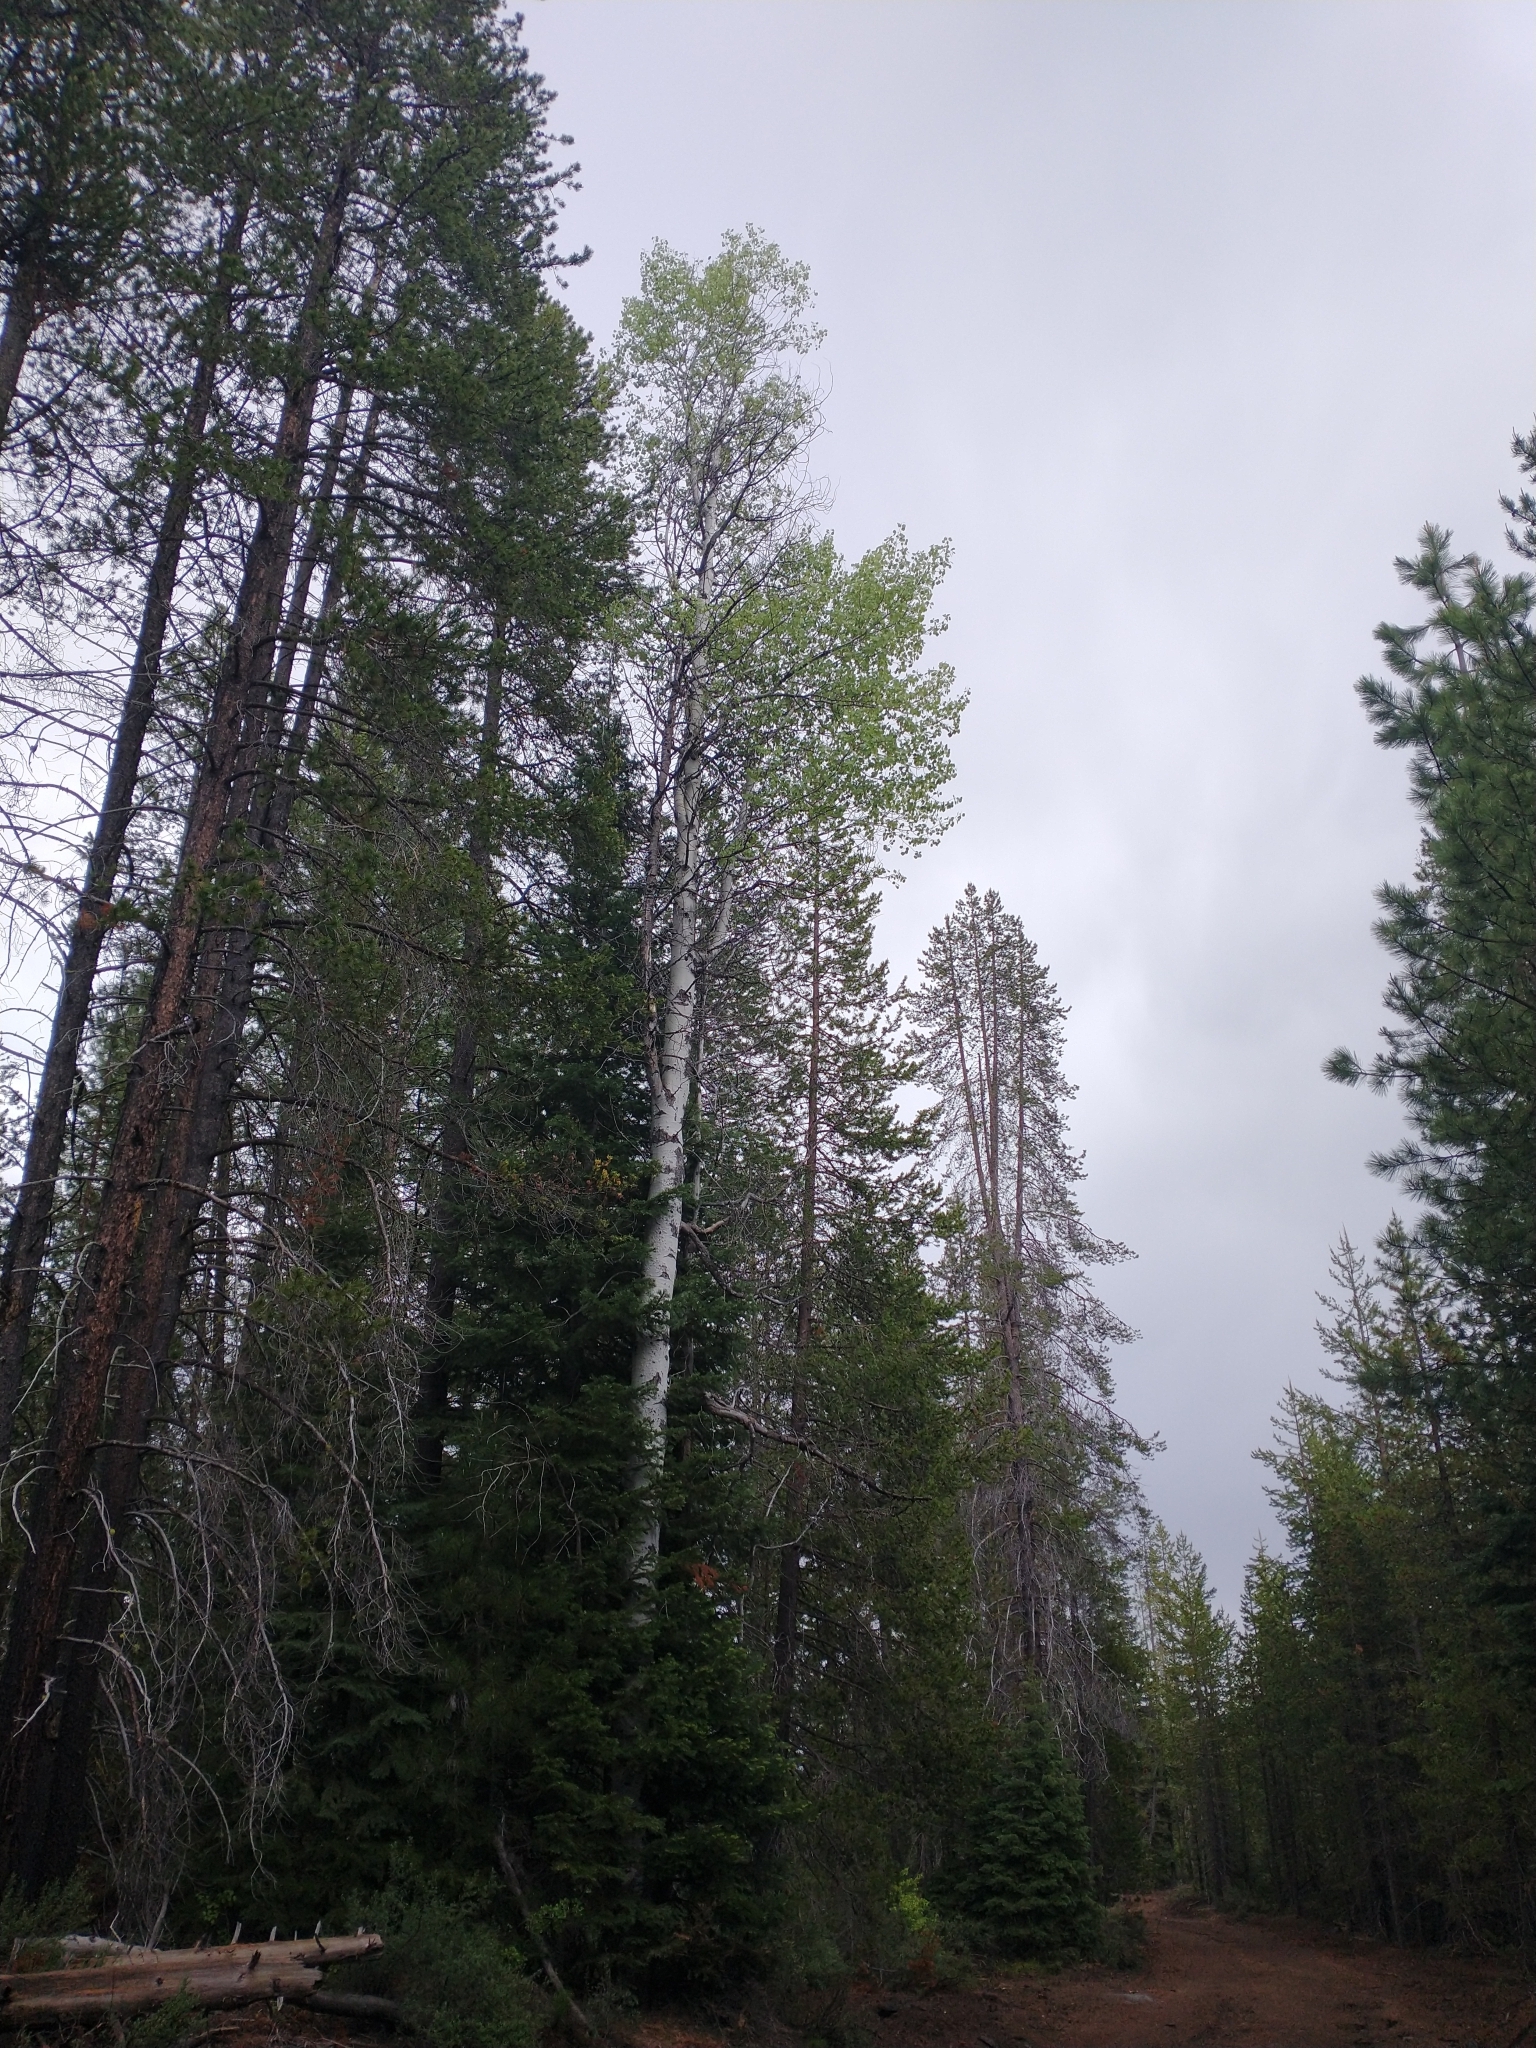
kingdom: Plantae
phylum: Tracheophyta
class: Magnoliopsida
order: Malpighiales
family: Salicaceae
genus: Populus
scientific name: Populus tremuloides
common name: Quaking aspen
